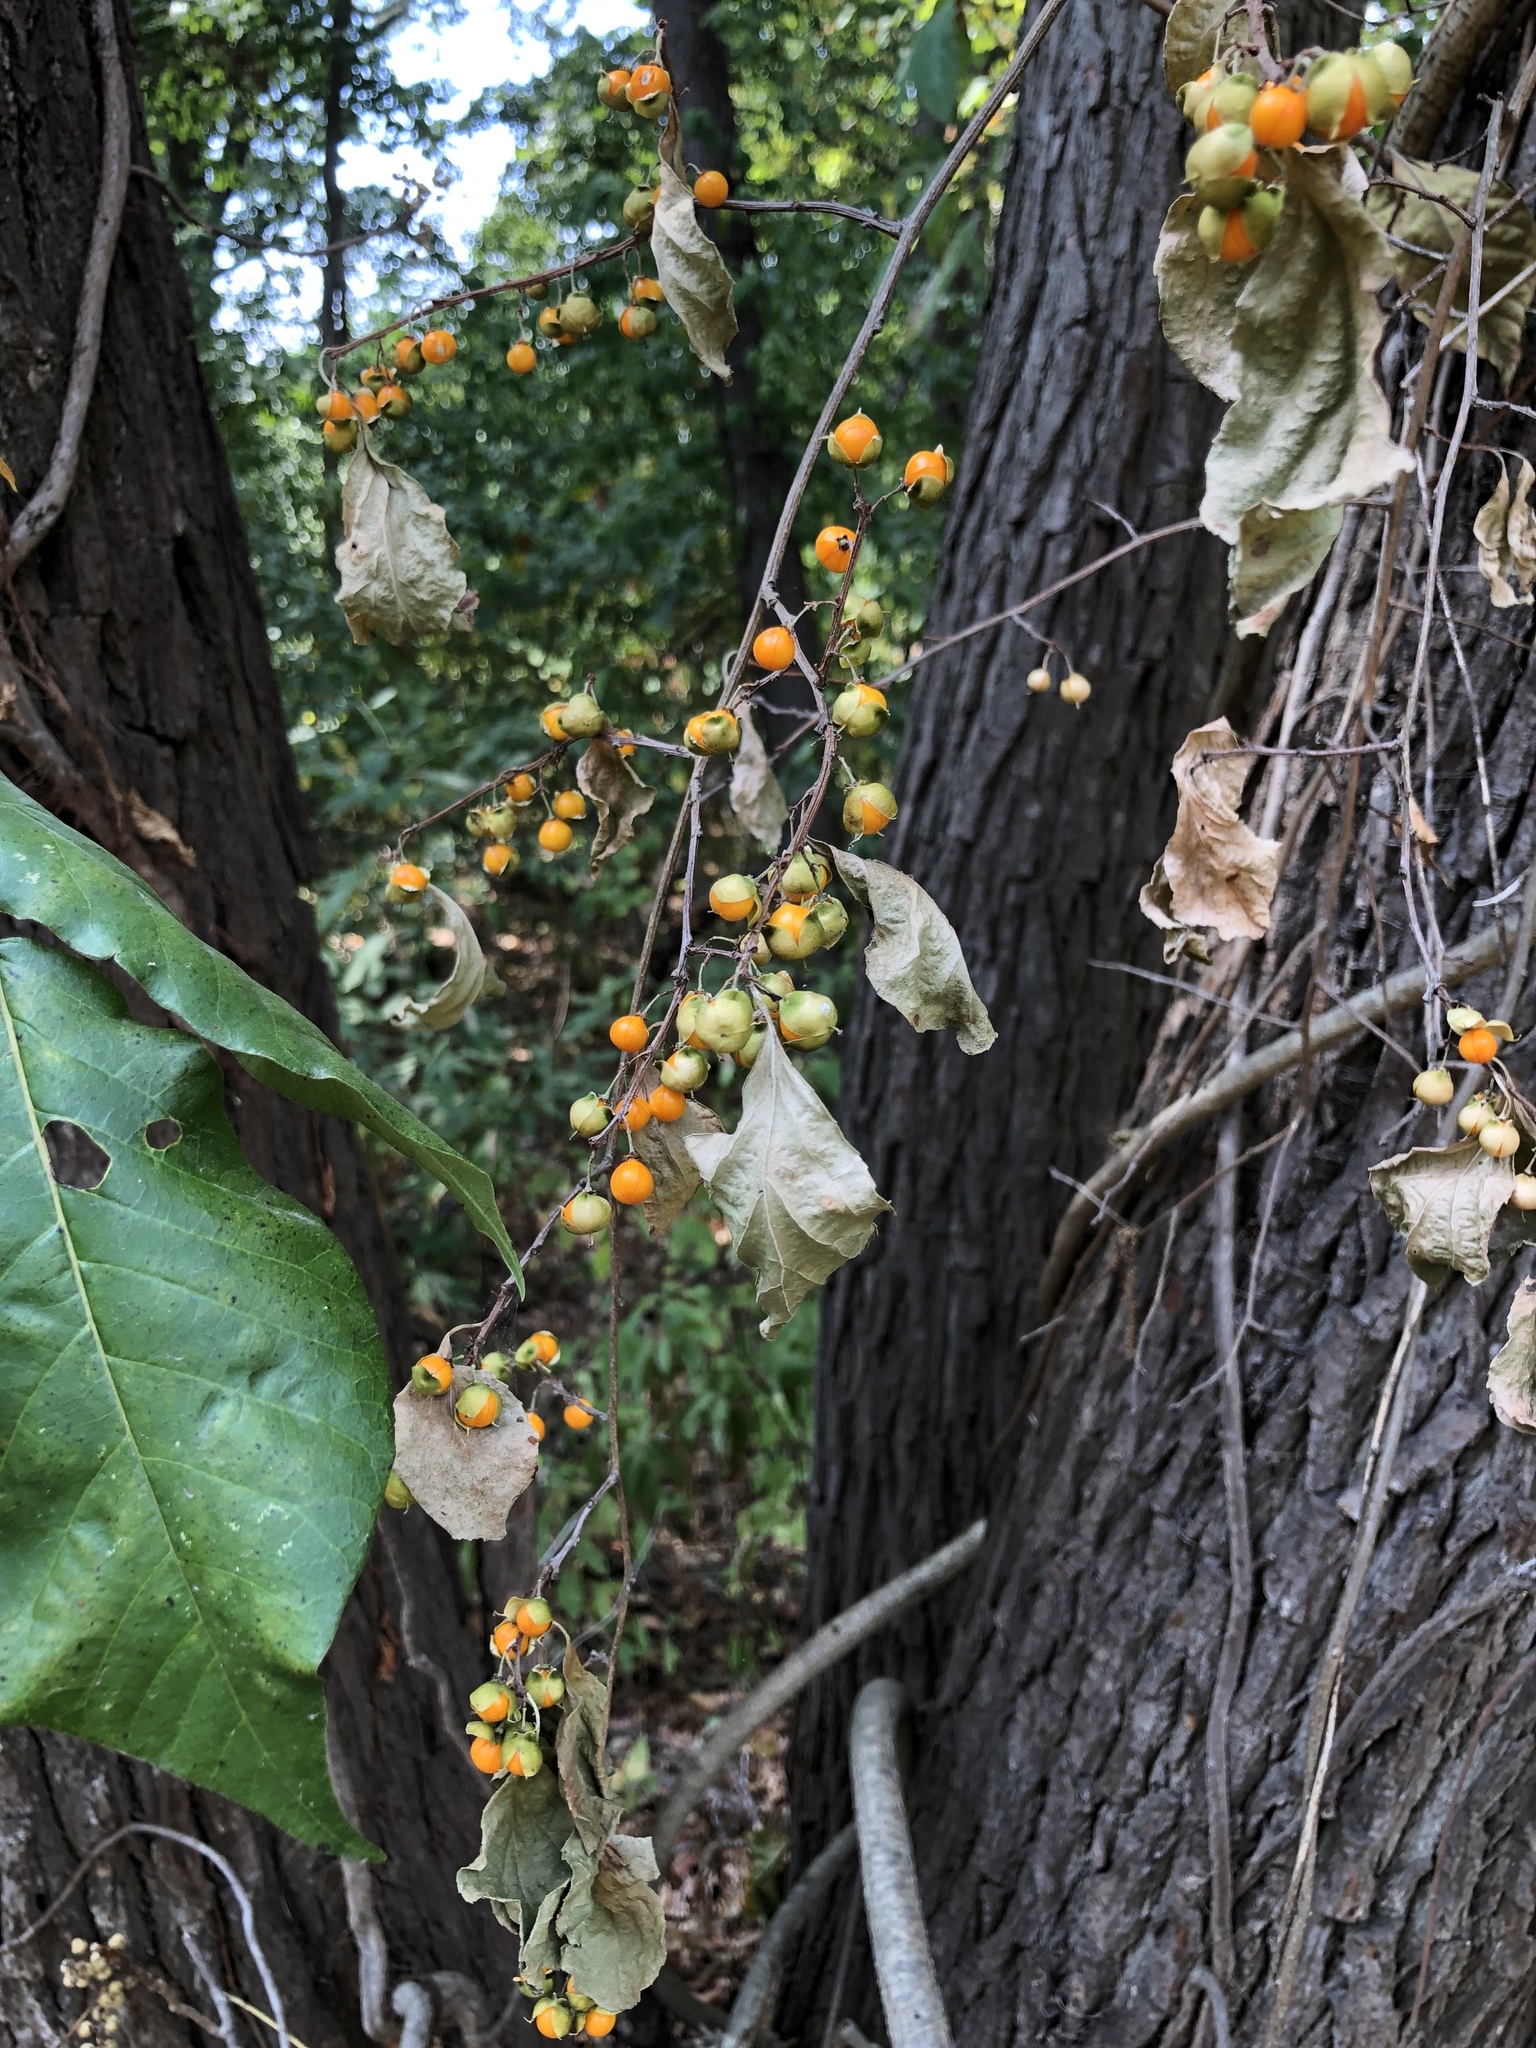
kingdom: Plantae
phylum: Tracheophyta
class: Magnoliopsida
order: Celastrales
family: Celastraceae
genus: Celastrus
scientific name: Celastrus orbiculatus
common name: Oriental bittersweet
